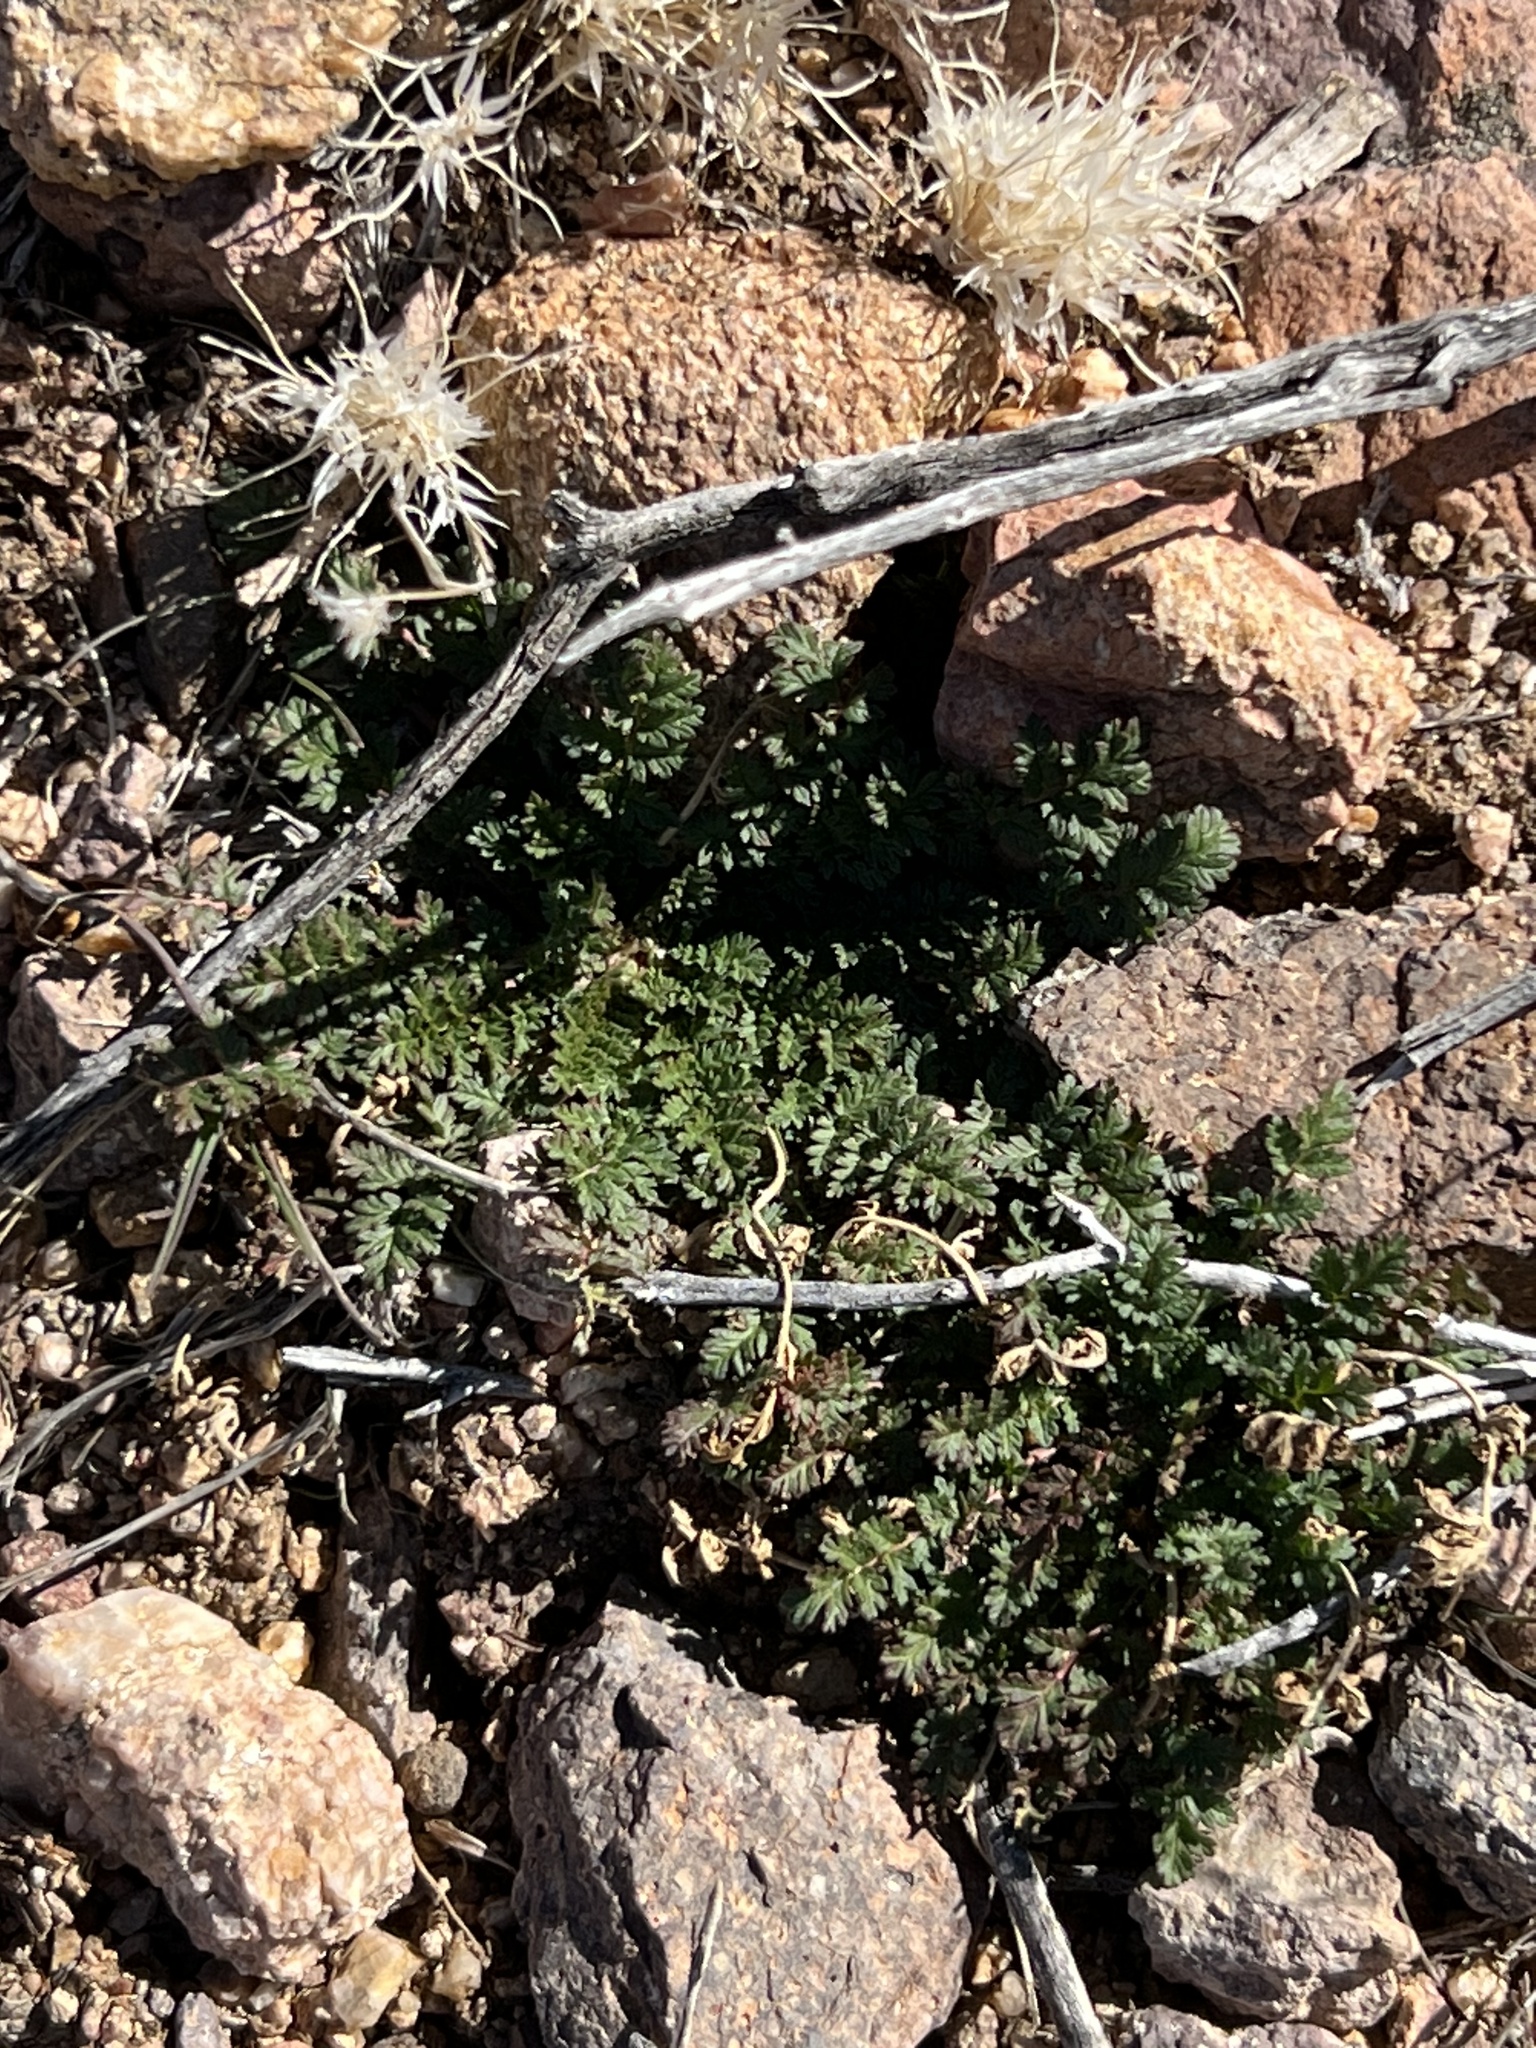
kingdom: Plantae
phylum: Tracheophyta
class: Magnoliopsida
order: Geraniales
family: Geraniaceae
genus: Erodium
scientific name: Erodium cicutarium
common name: Common stork's-bill
